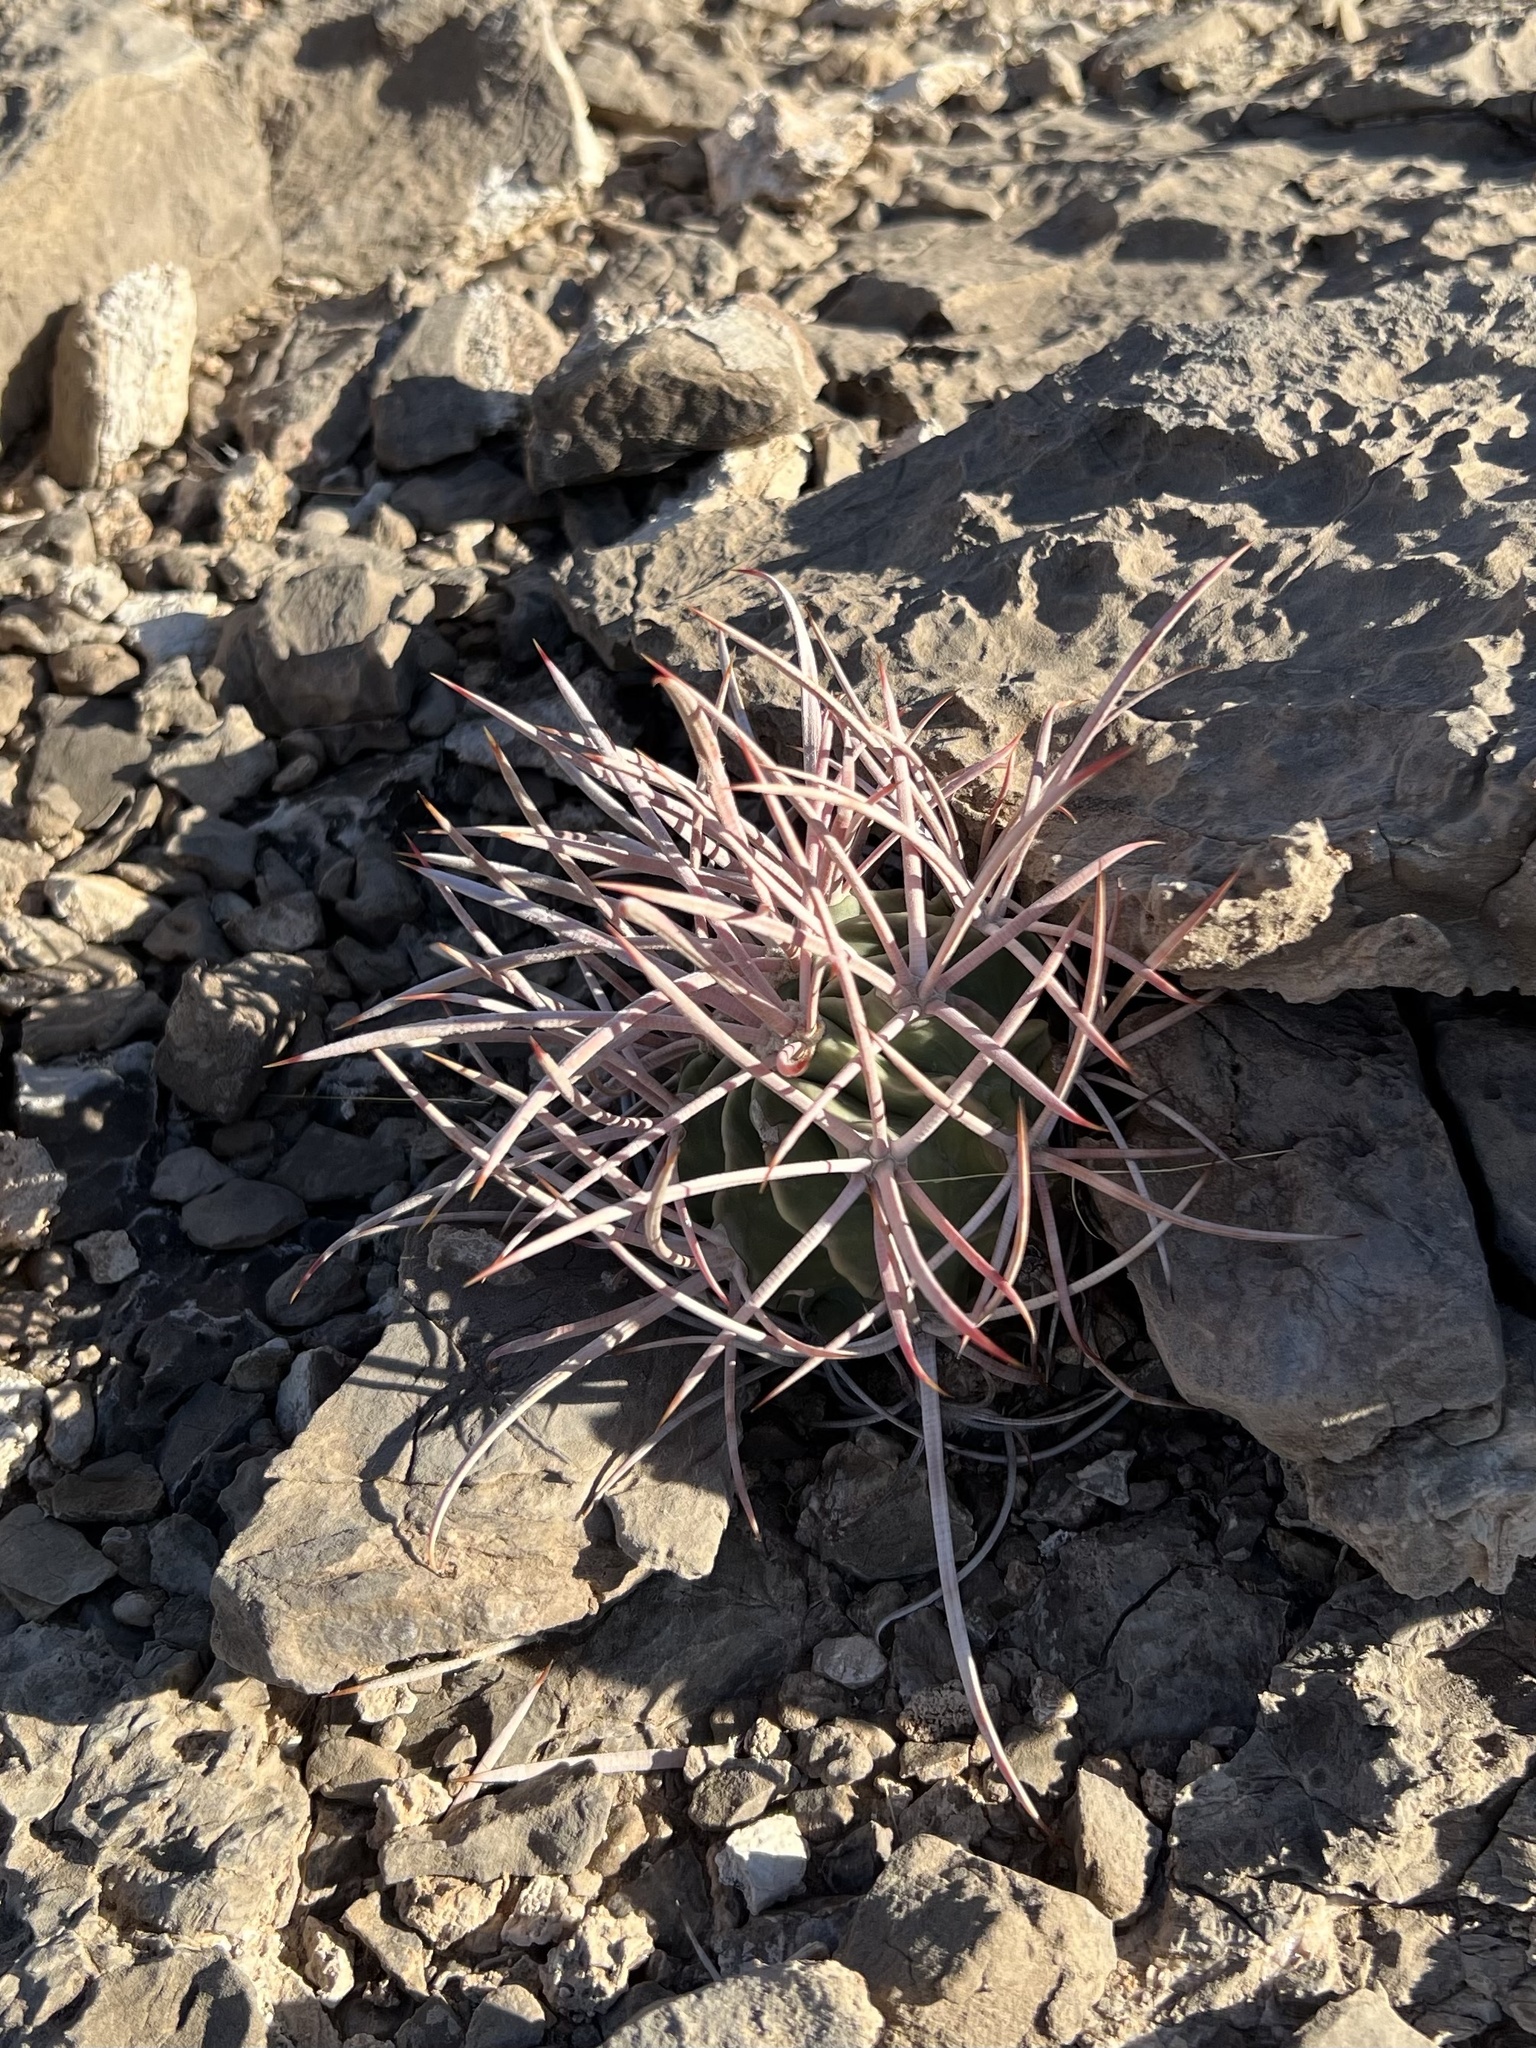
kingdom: Plantae
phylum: Tracheophyta
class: Magnoliopsida
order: Caryophyllales
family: Cactaceae
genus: Echinocactus
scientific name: Echinocactus polycephalus
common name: Cottontop cactus
